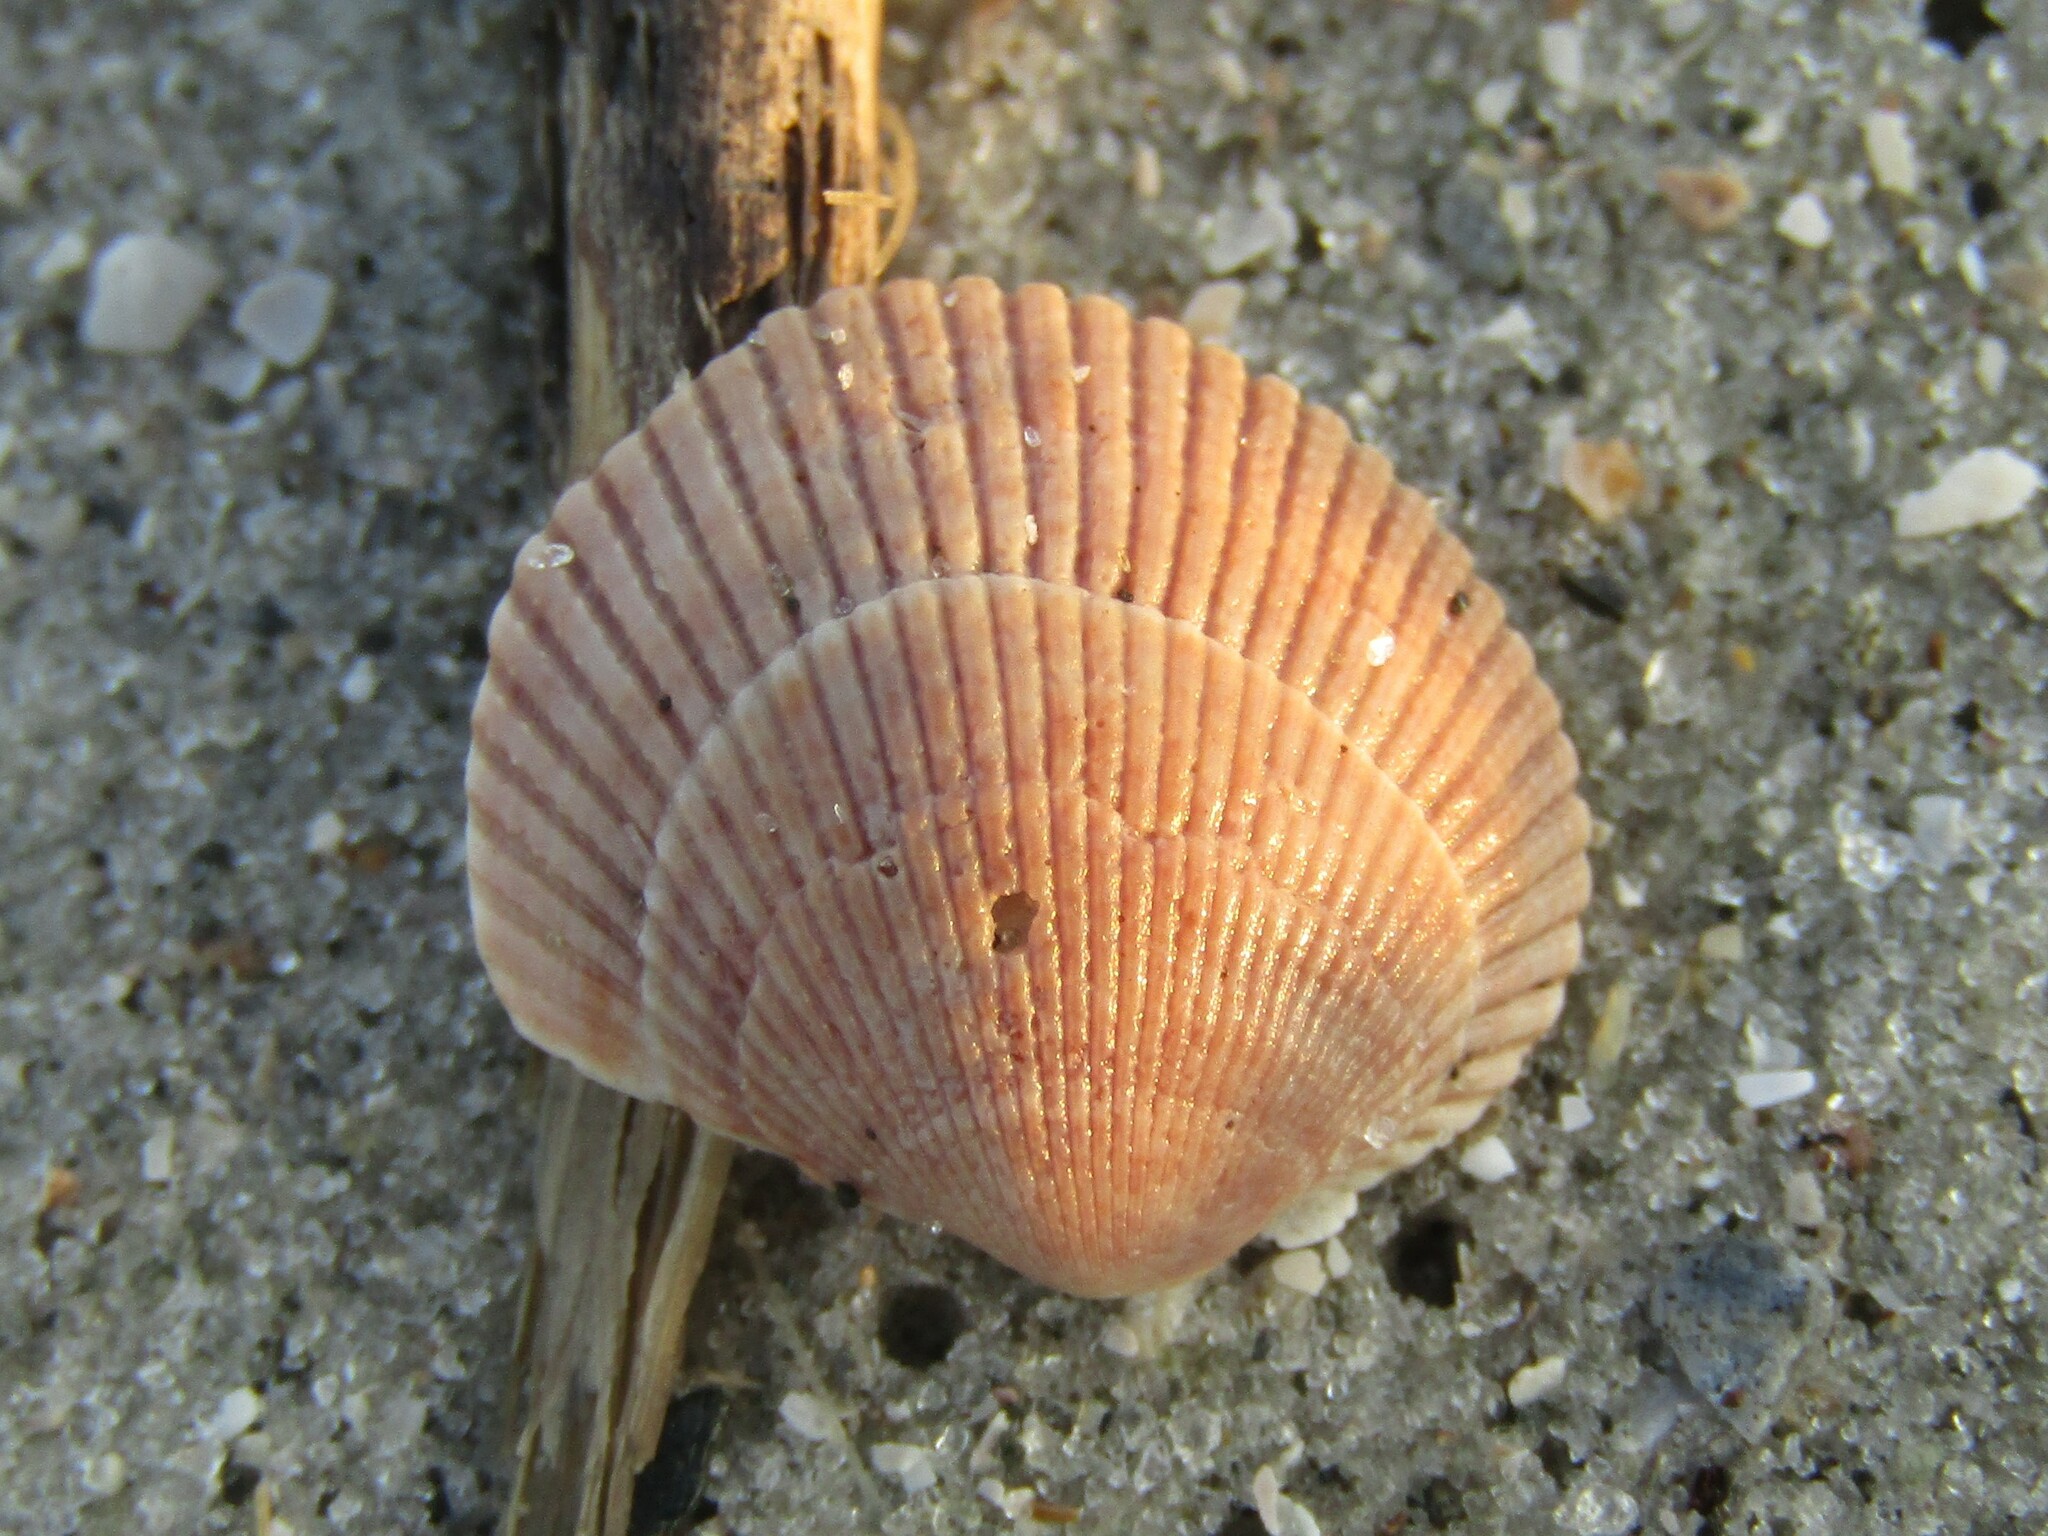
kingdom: Animalia
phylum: Mollusca
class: Bivalvia
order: Arcida
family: Arcidae
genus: Lunarca
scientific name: Lunarca ovalis
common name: Blood ark
